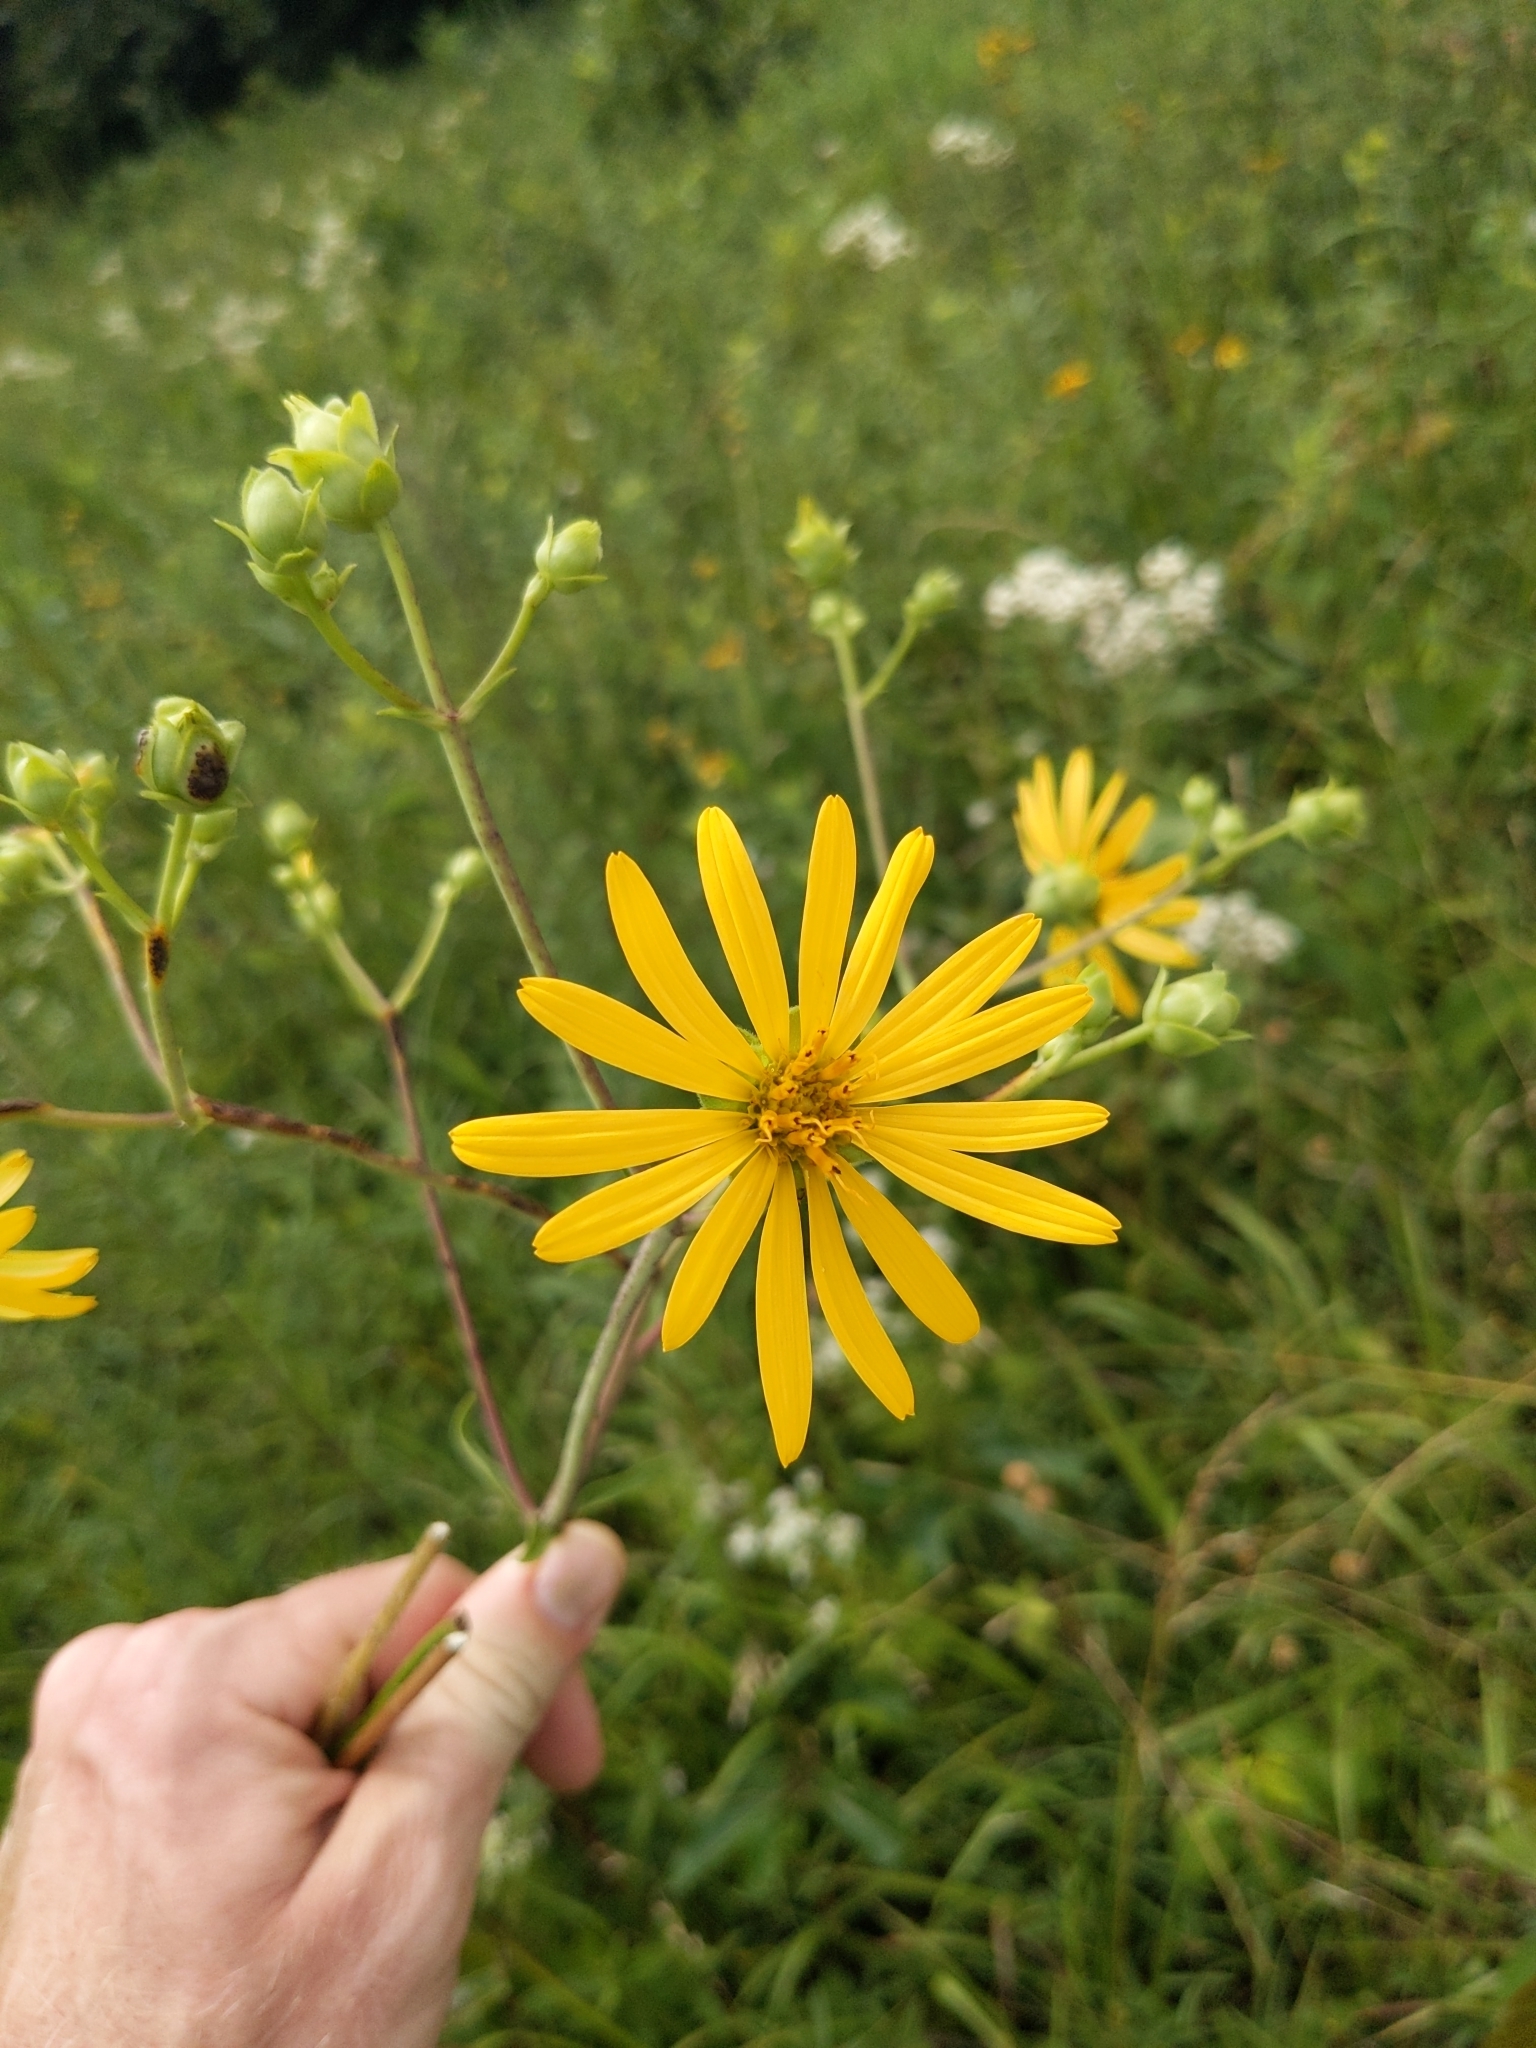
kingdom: Plantae
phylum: Tracheophyta
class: Magnoliopsida
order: Asterales
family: Asteraceae
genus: Silphium
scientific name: Silphium asteriscus
